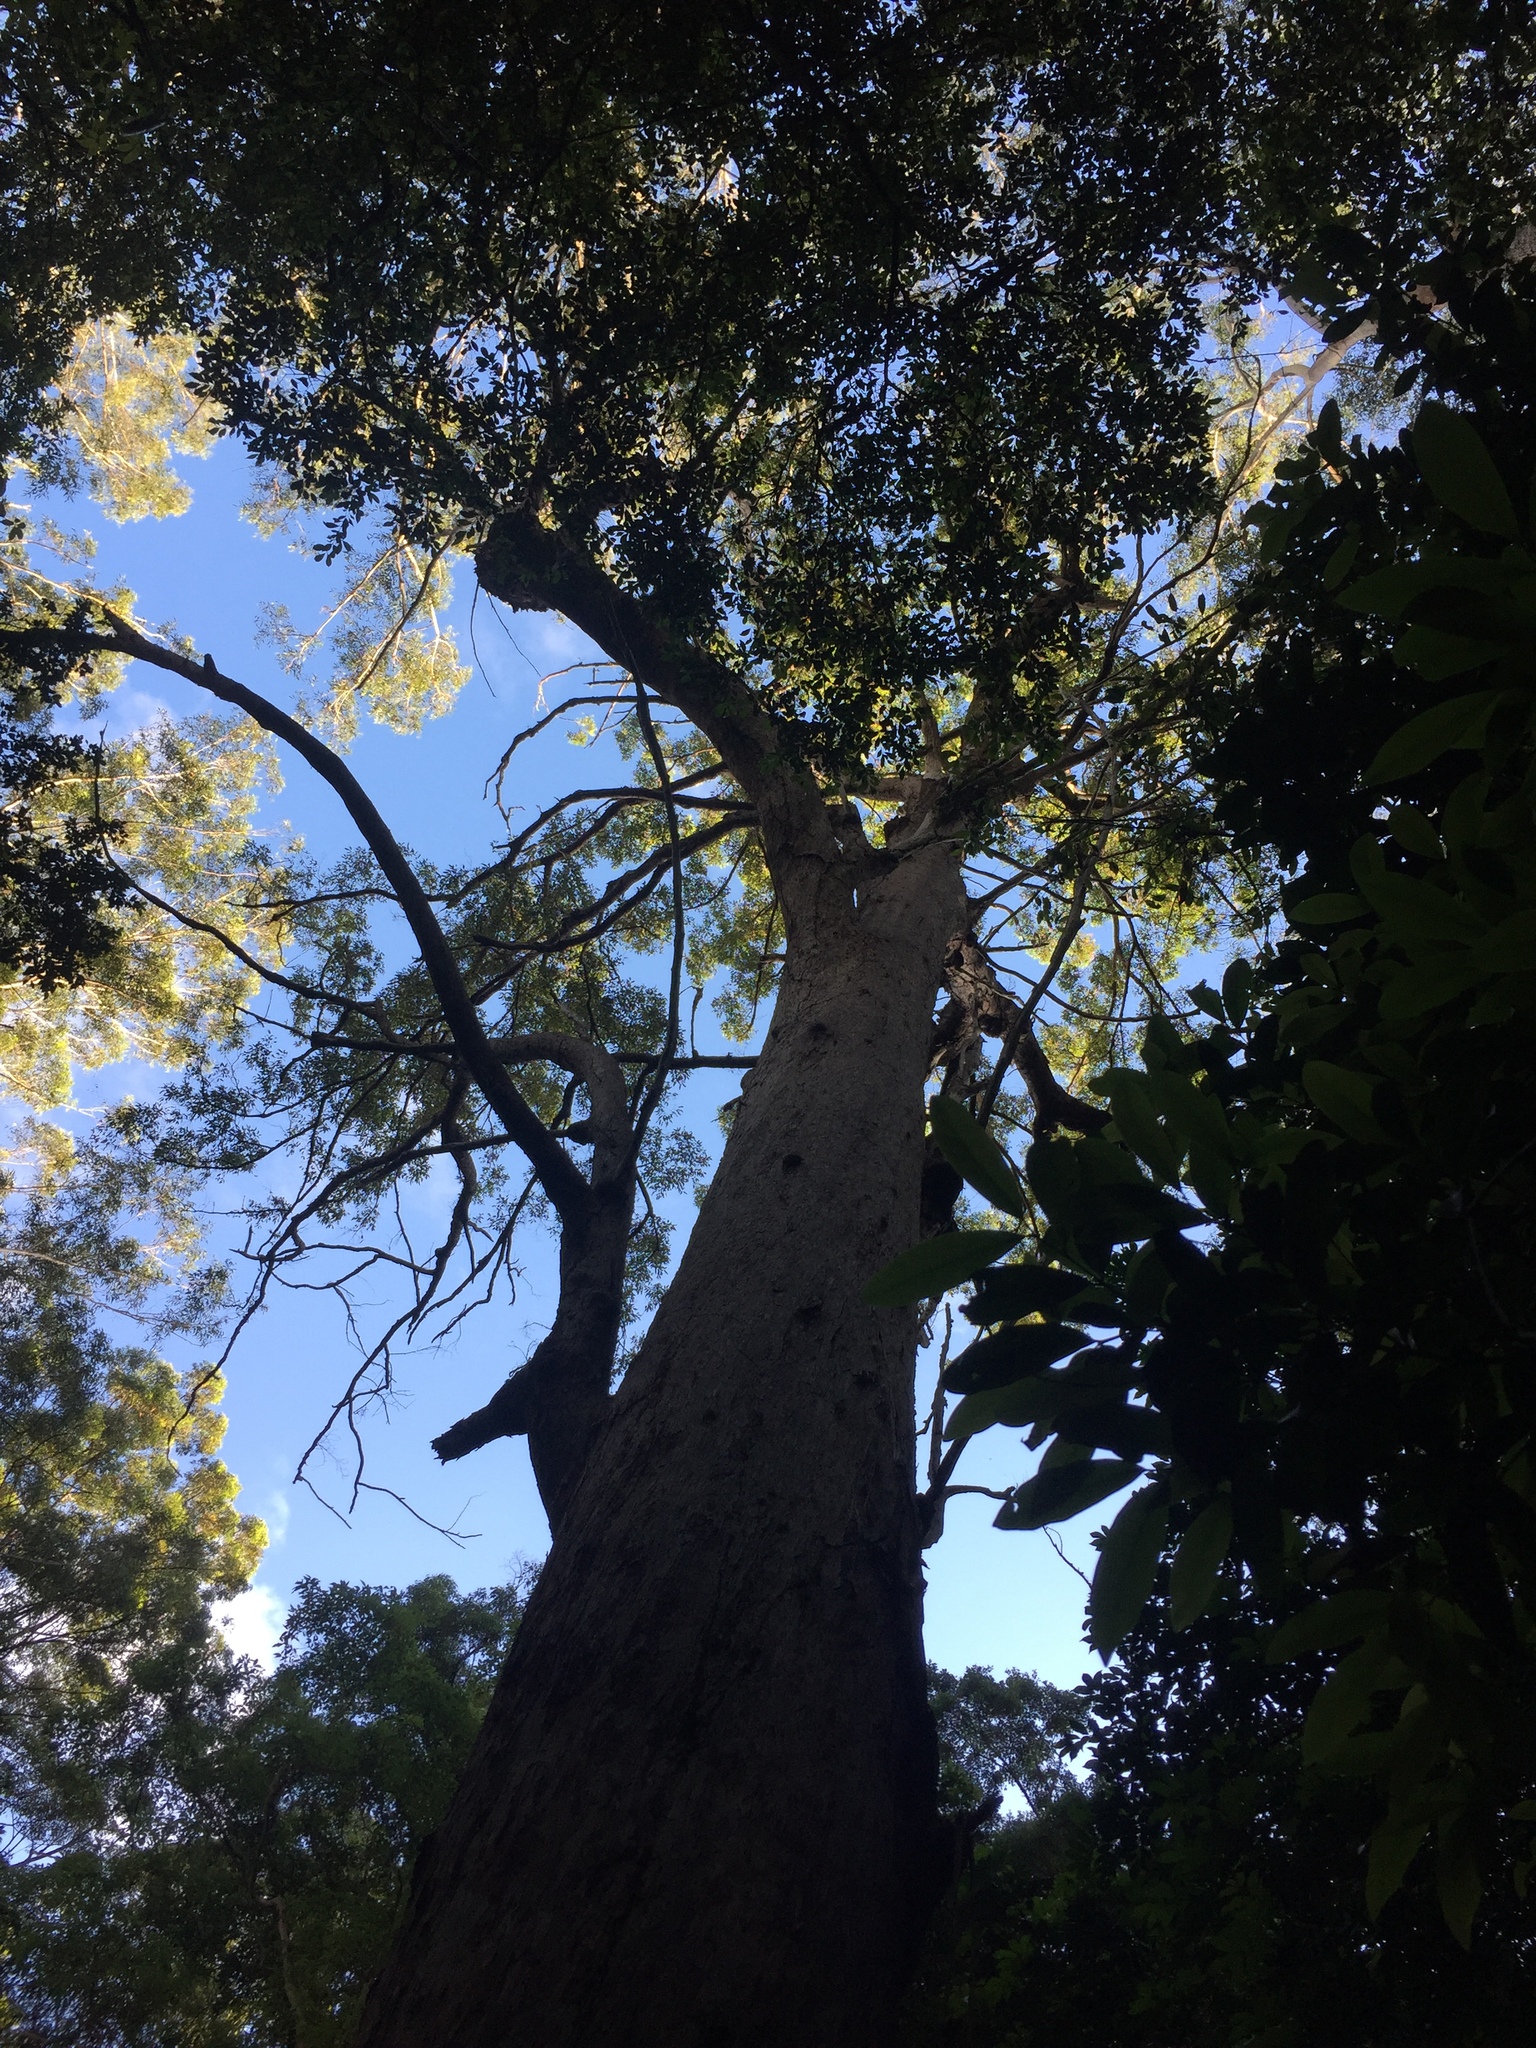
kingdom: Plantae
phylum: Tracheophyta
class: Magnoliopsida
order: Myrtales
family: Myrtaceae
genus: Eucalyptus
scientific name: Eucalyptus microcorys
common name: Tallowwood
